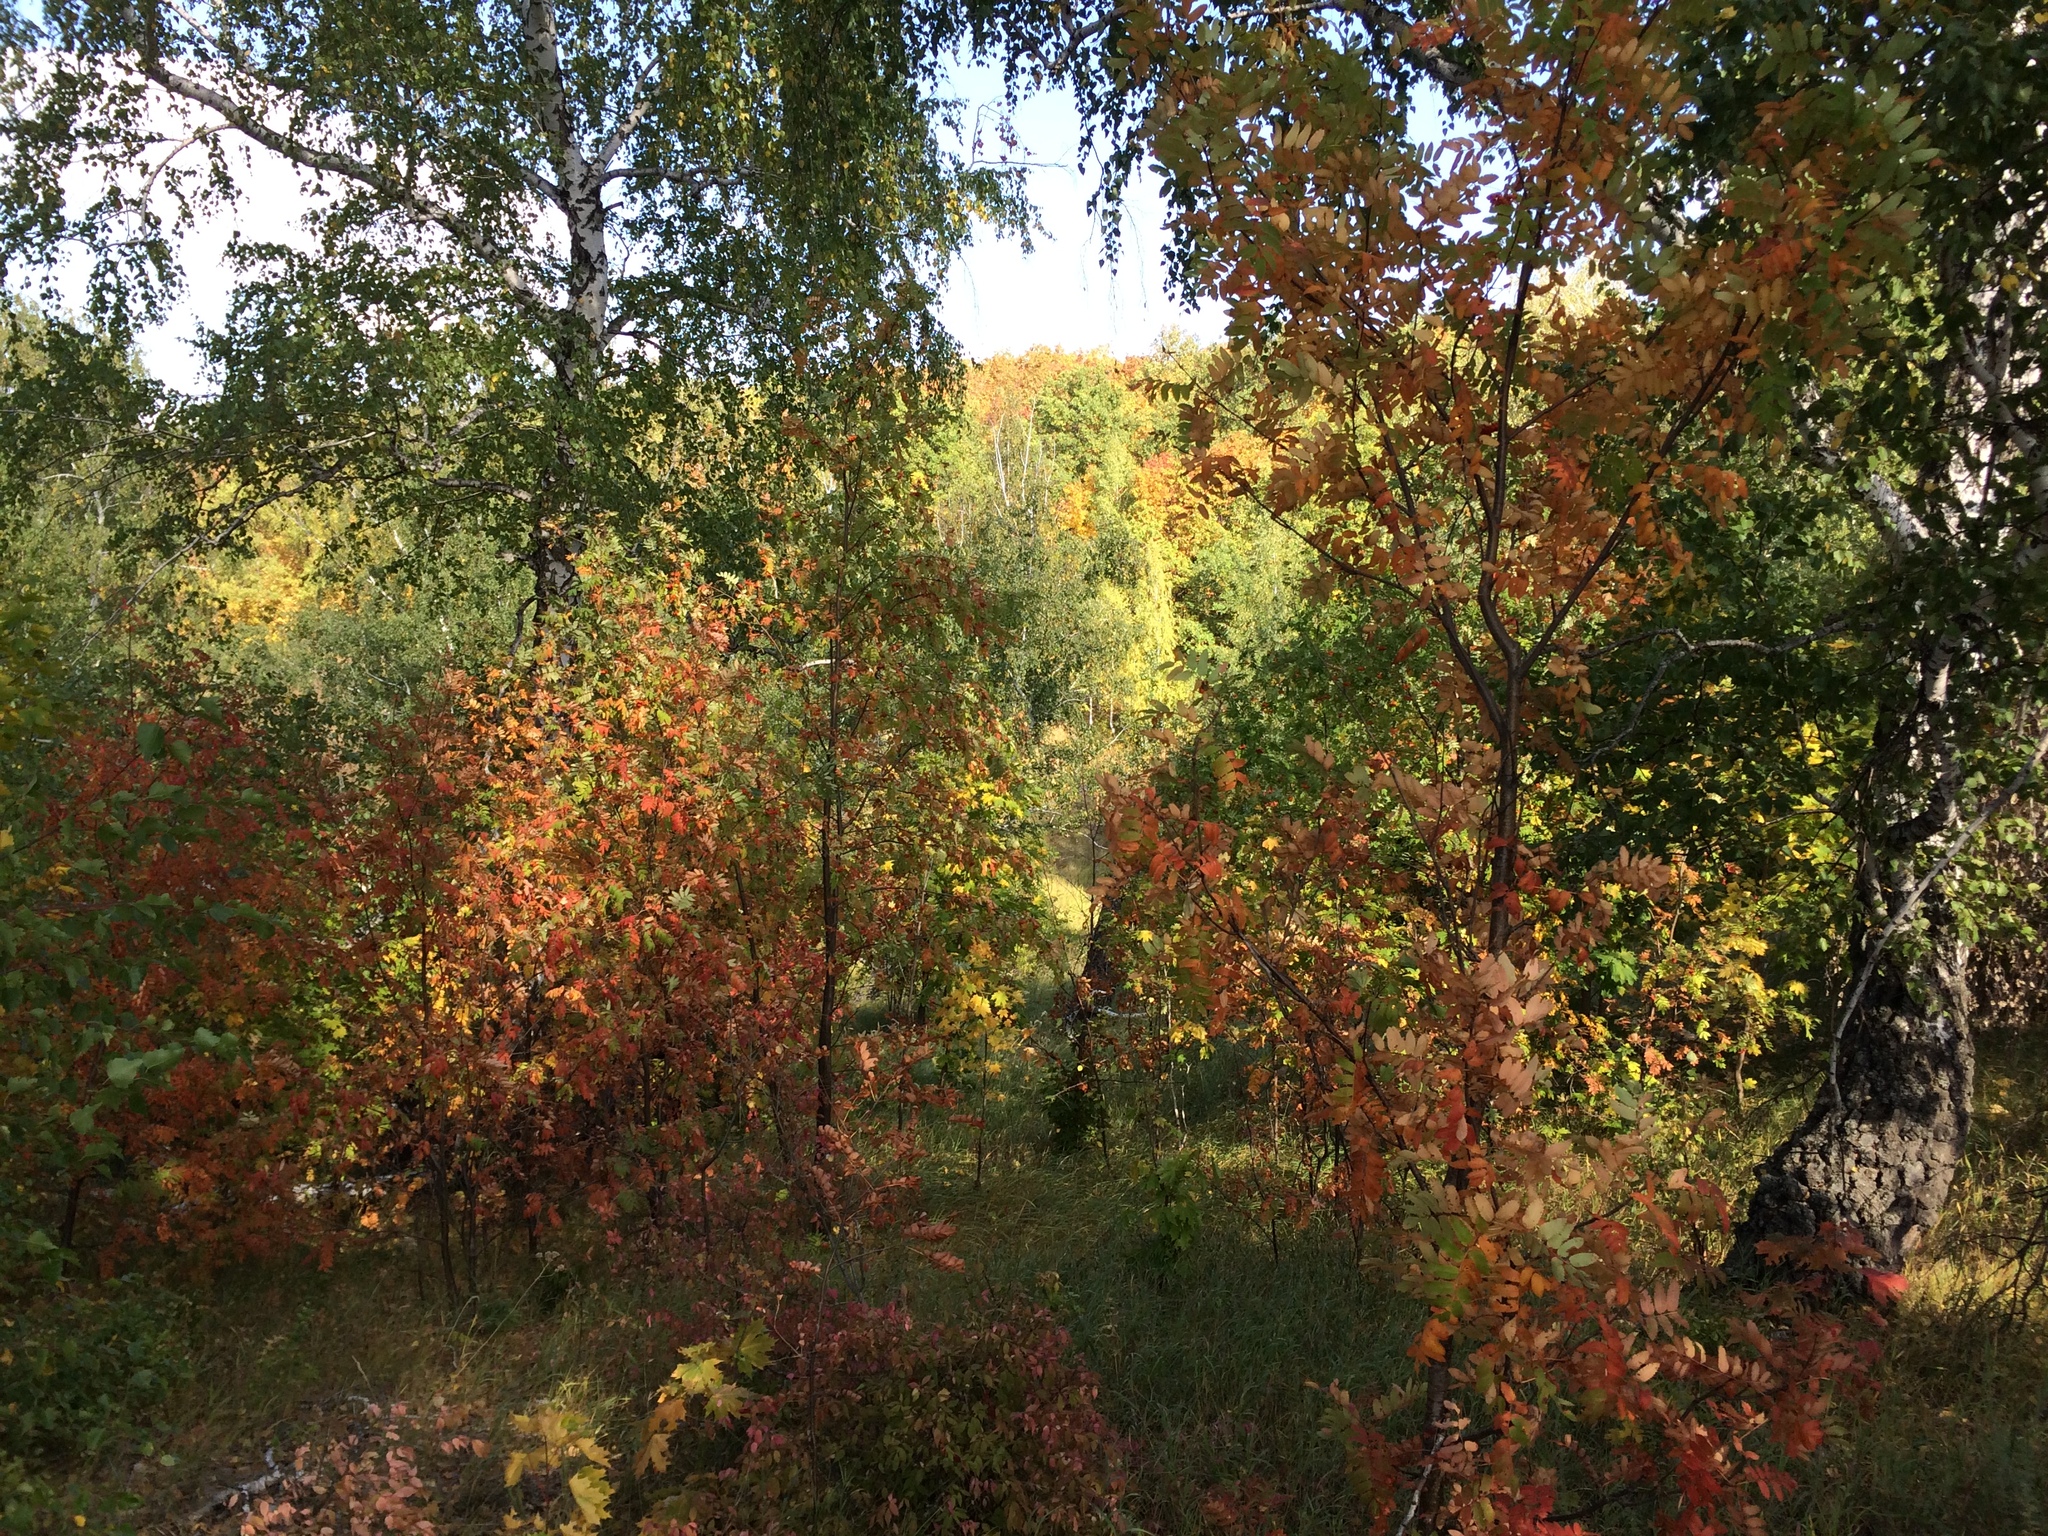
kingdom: Plantae
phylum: Tracheophyta
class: Magnoliopsida
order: Rosales
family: Rosaceae
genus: Sorbus
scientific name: Sorbus aucuparia
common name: Rowan
